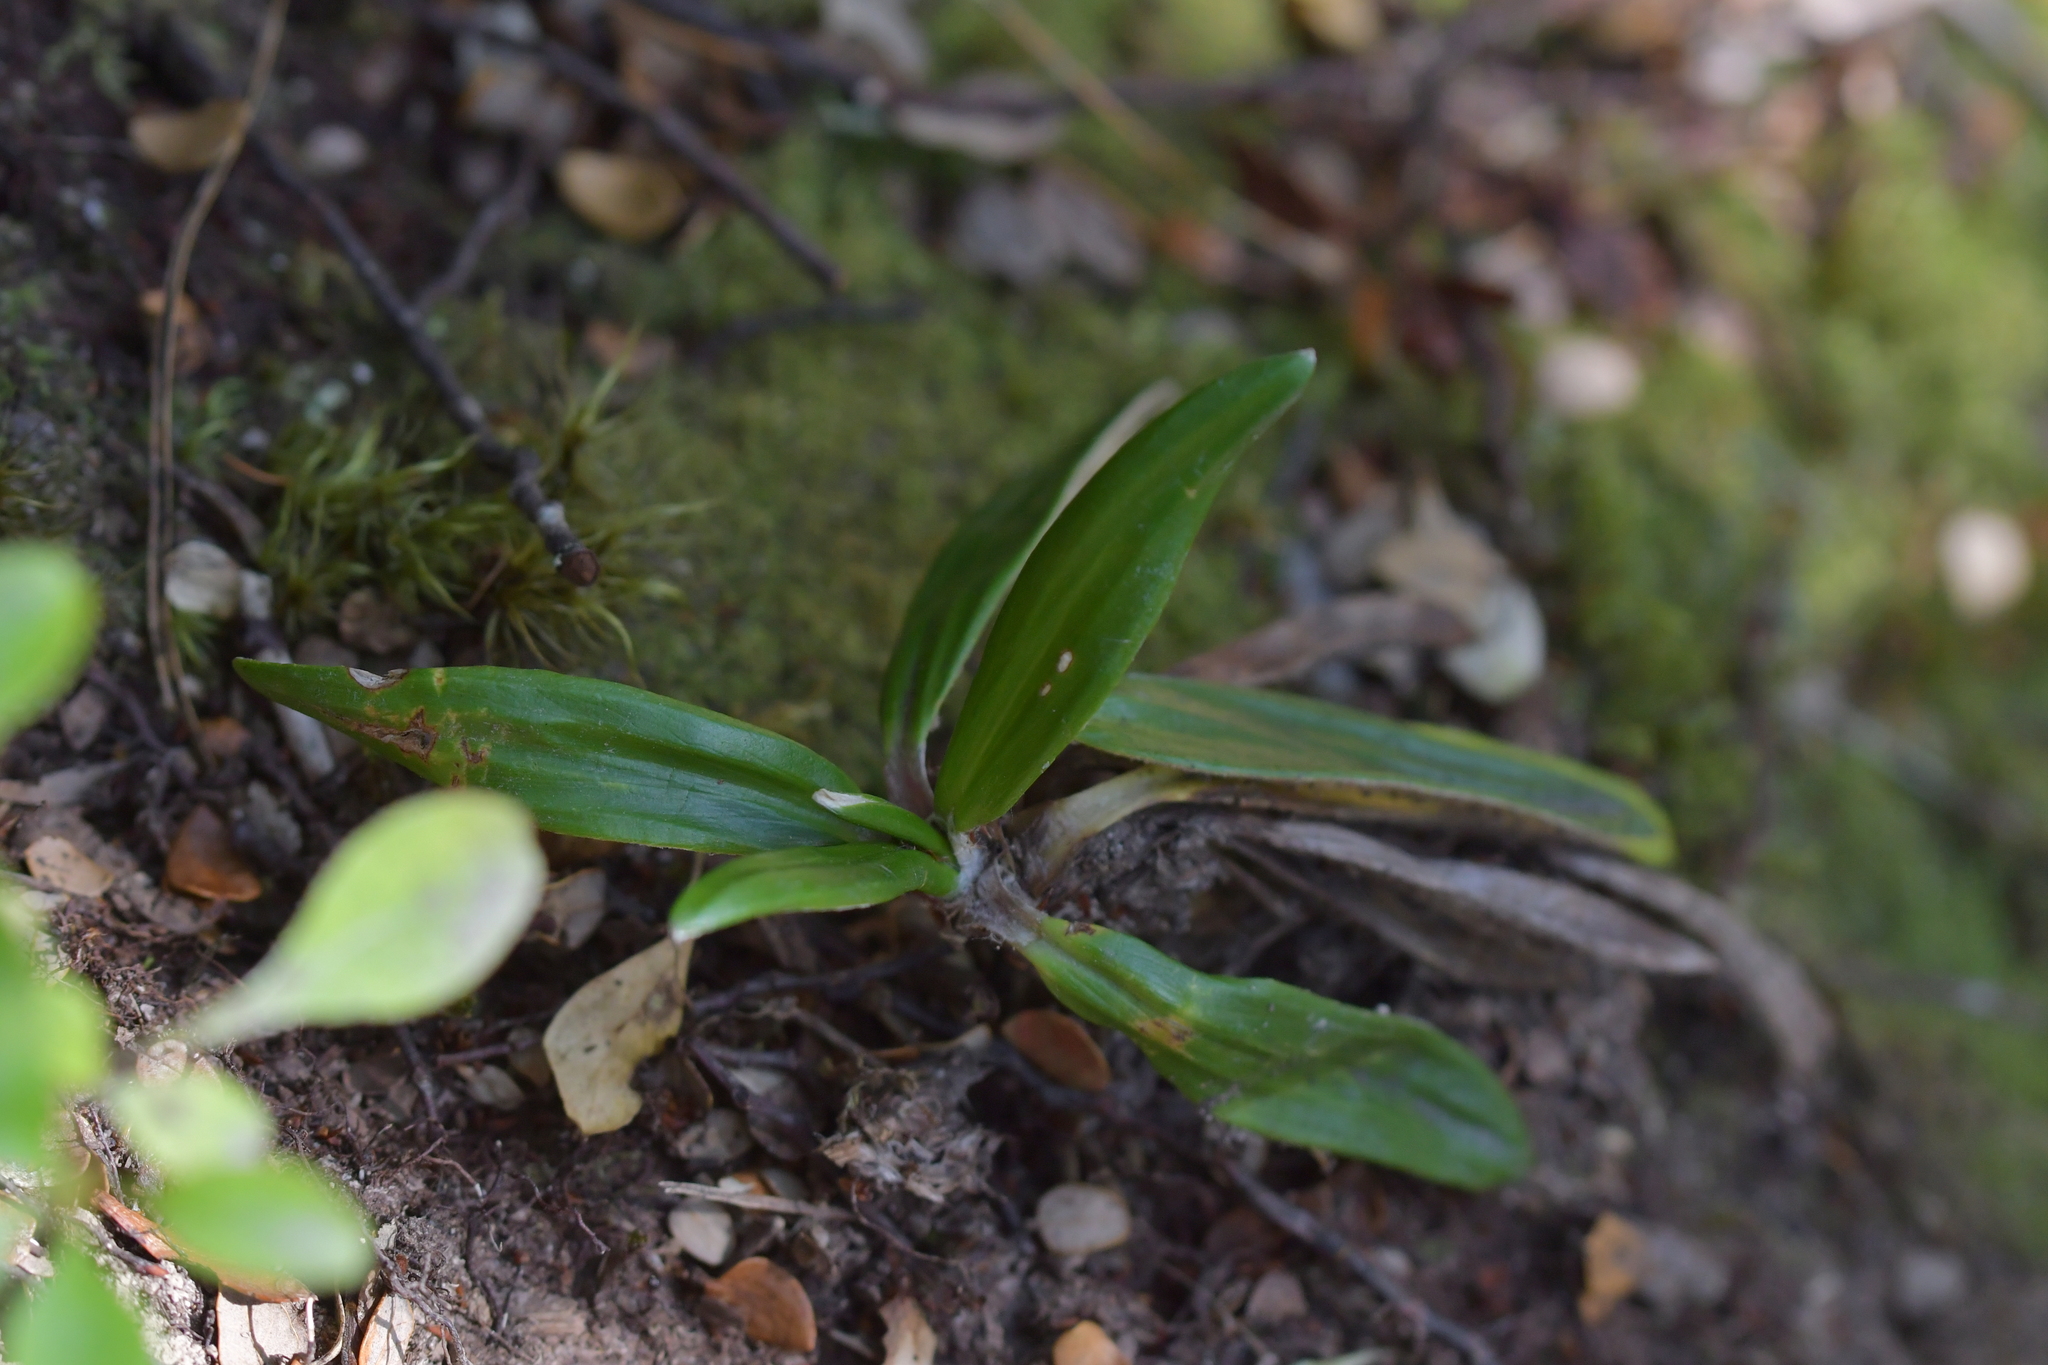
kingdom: Plantae
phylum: Tracheophyta
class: Magnoliopsida
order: Asterales
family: Asteraceae
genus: Celmisia
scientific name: Celmisia spectabilis
